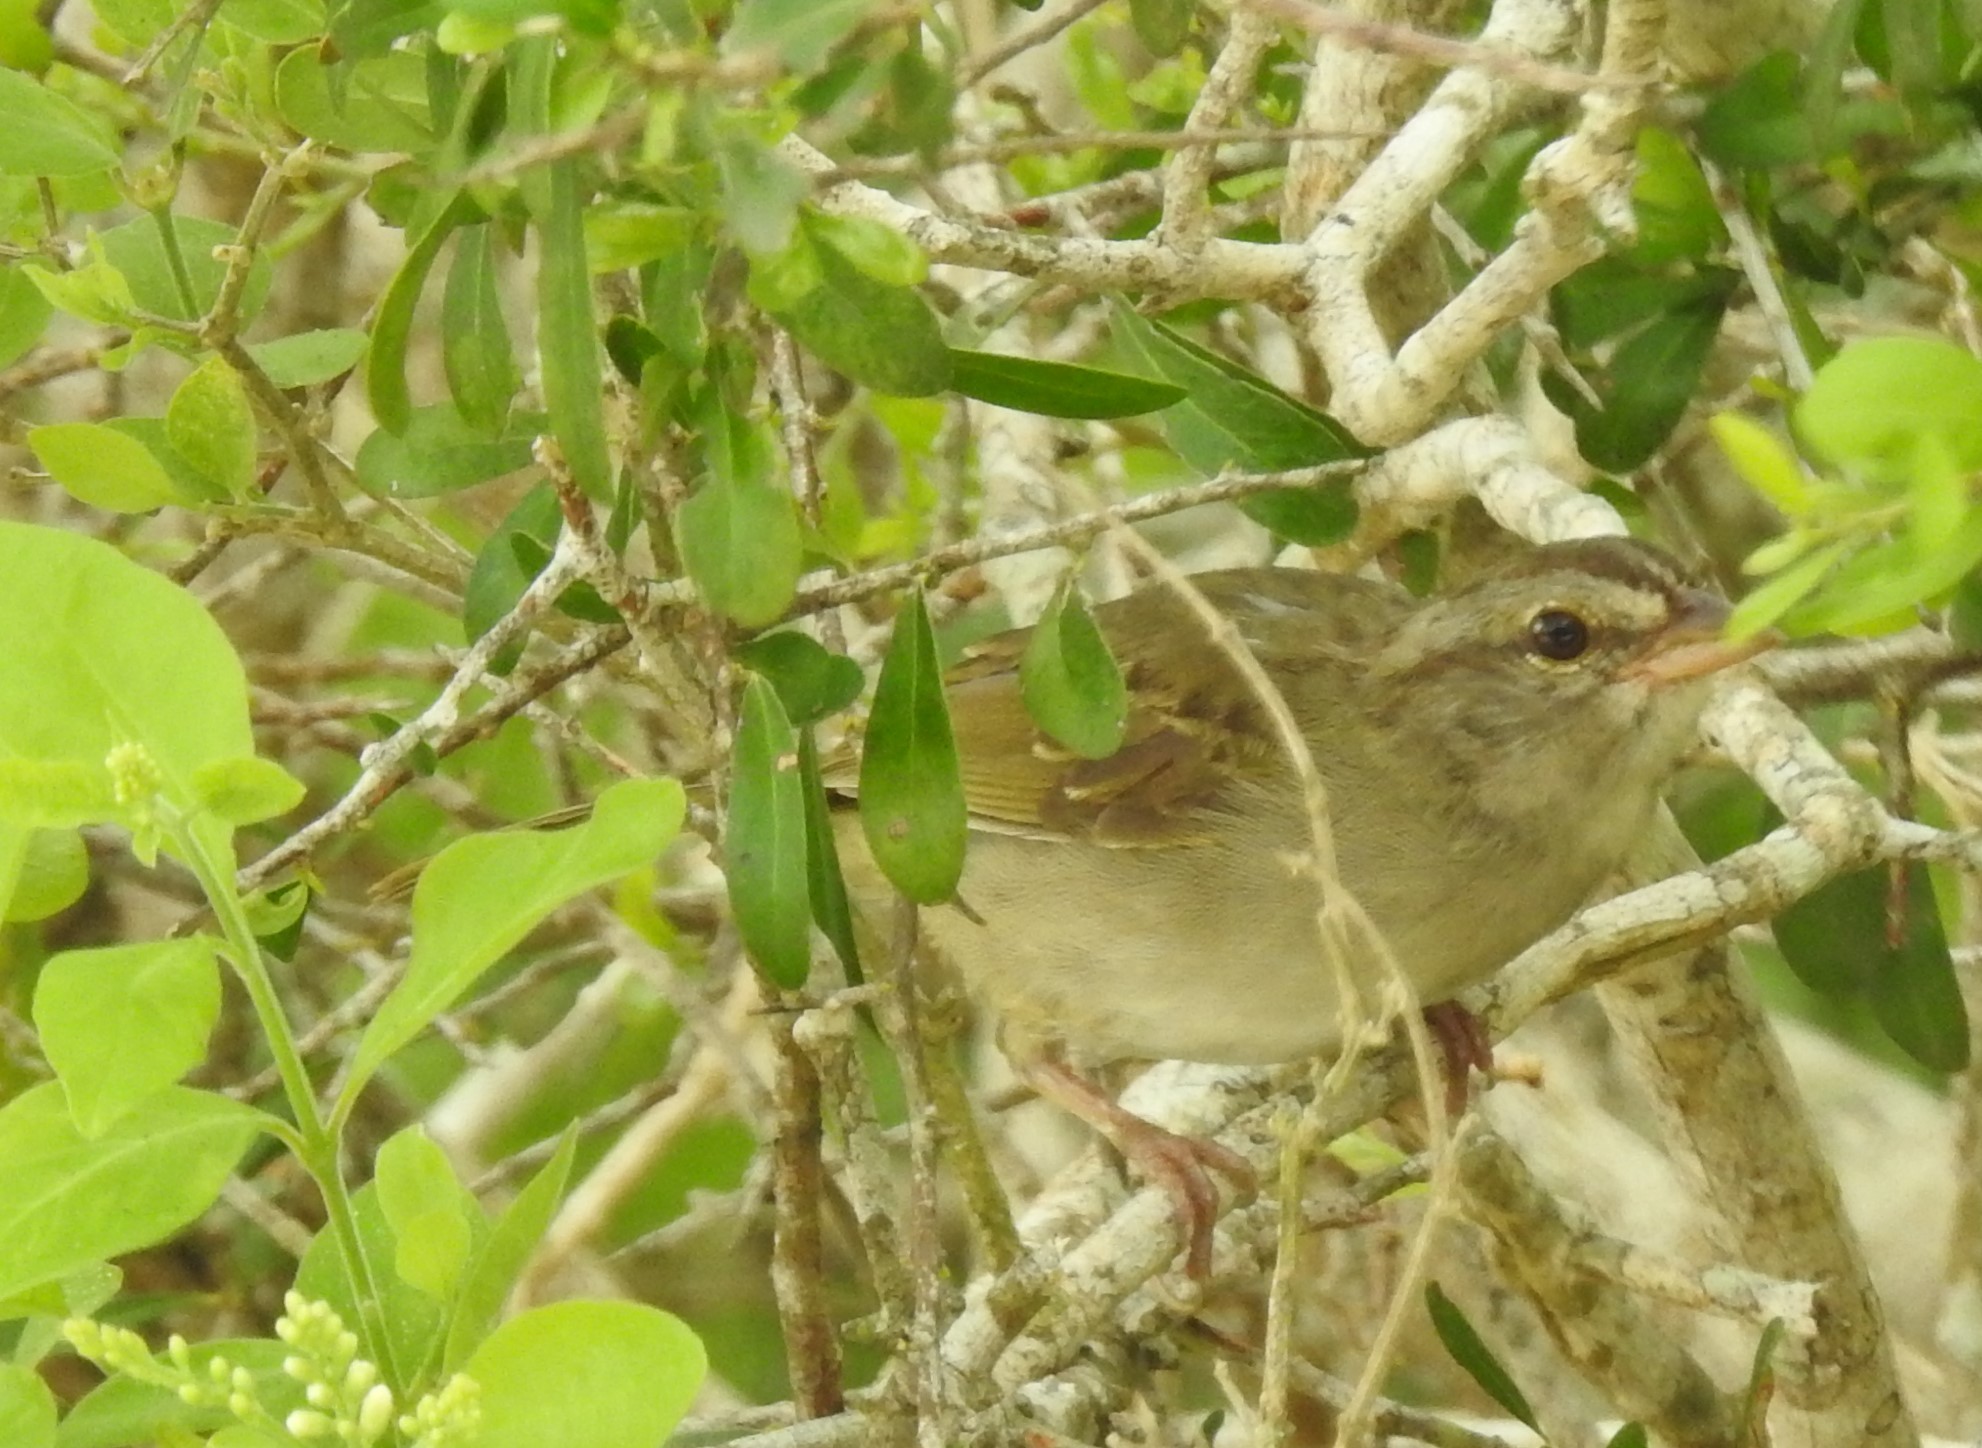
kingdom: Animalia
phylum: Chordata
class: Aves
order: Passeriformes
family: Passerellidae
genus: Arremonops
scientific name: Arremonops rufivirgatus
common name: Olive sparrow
